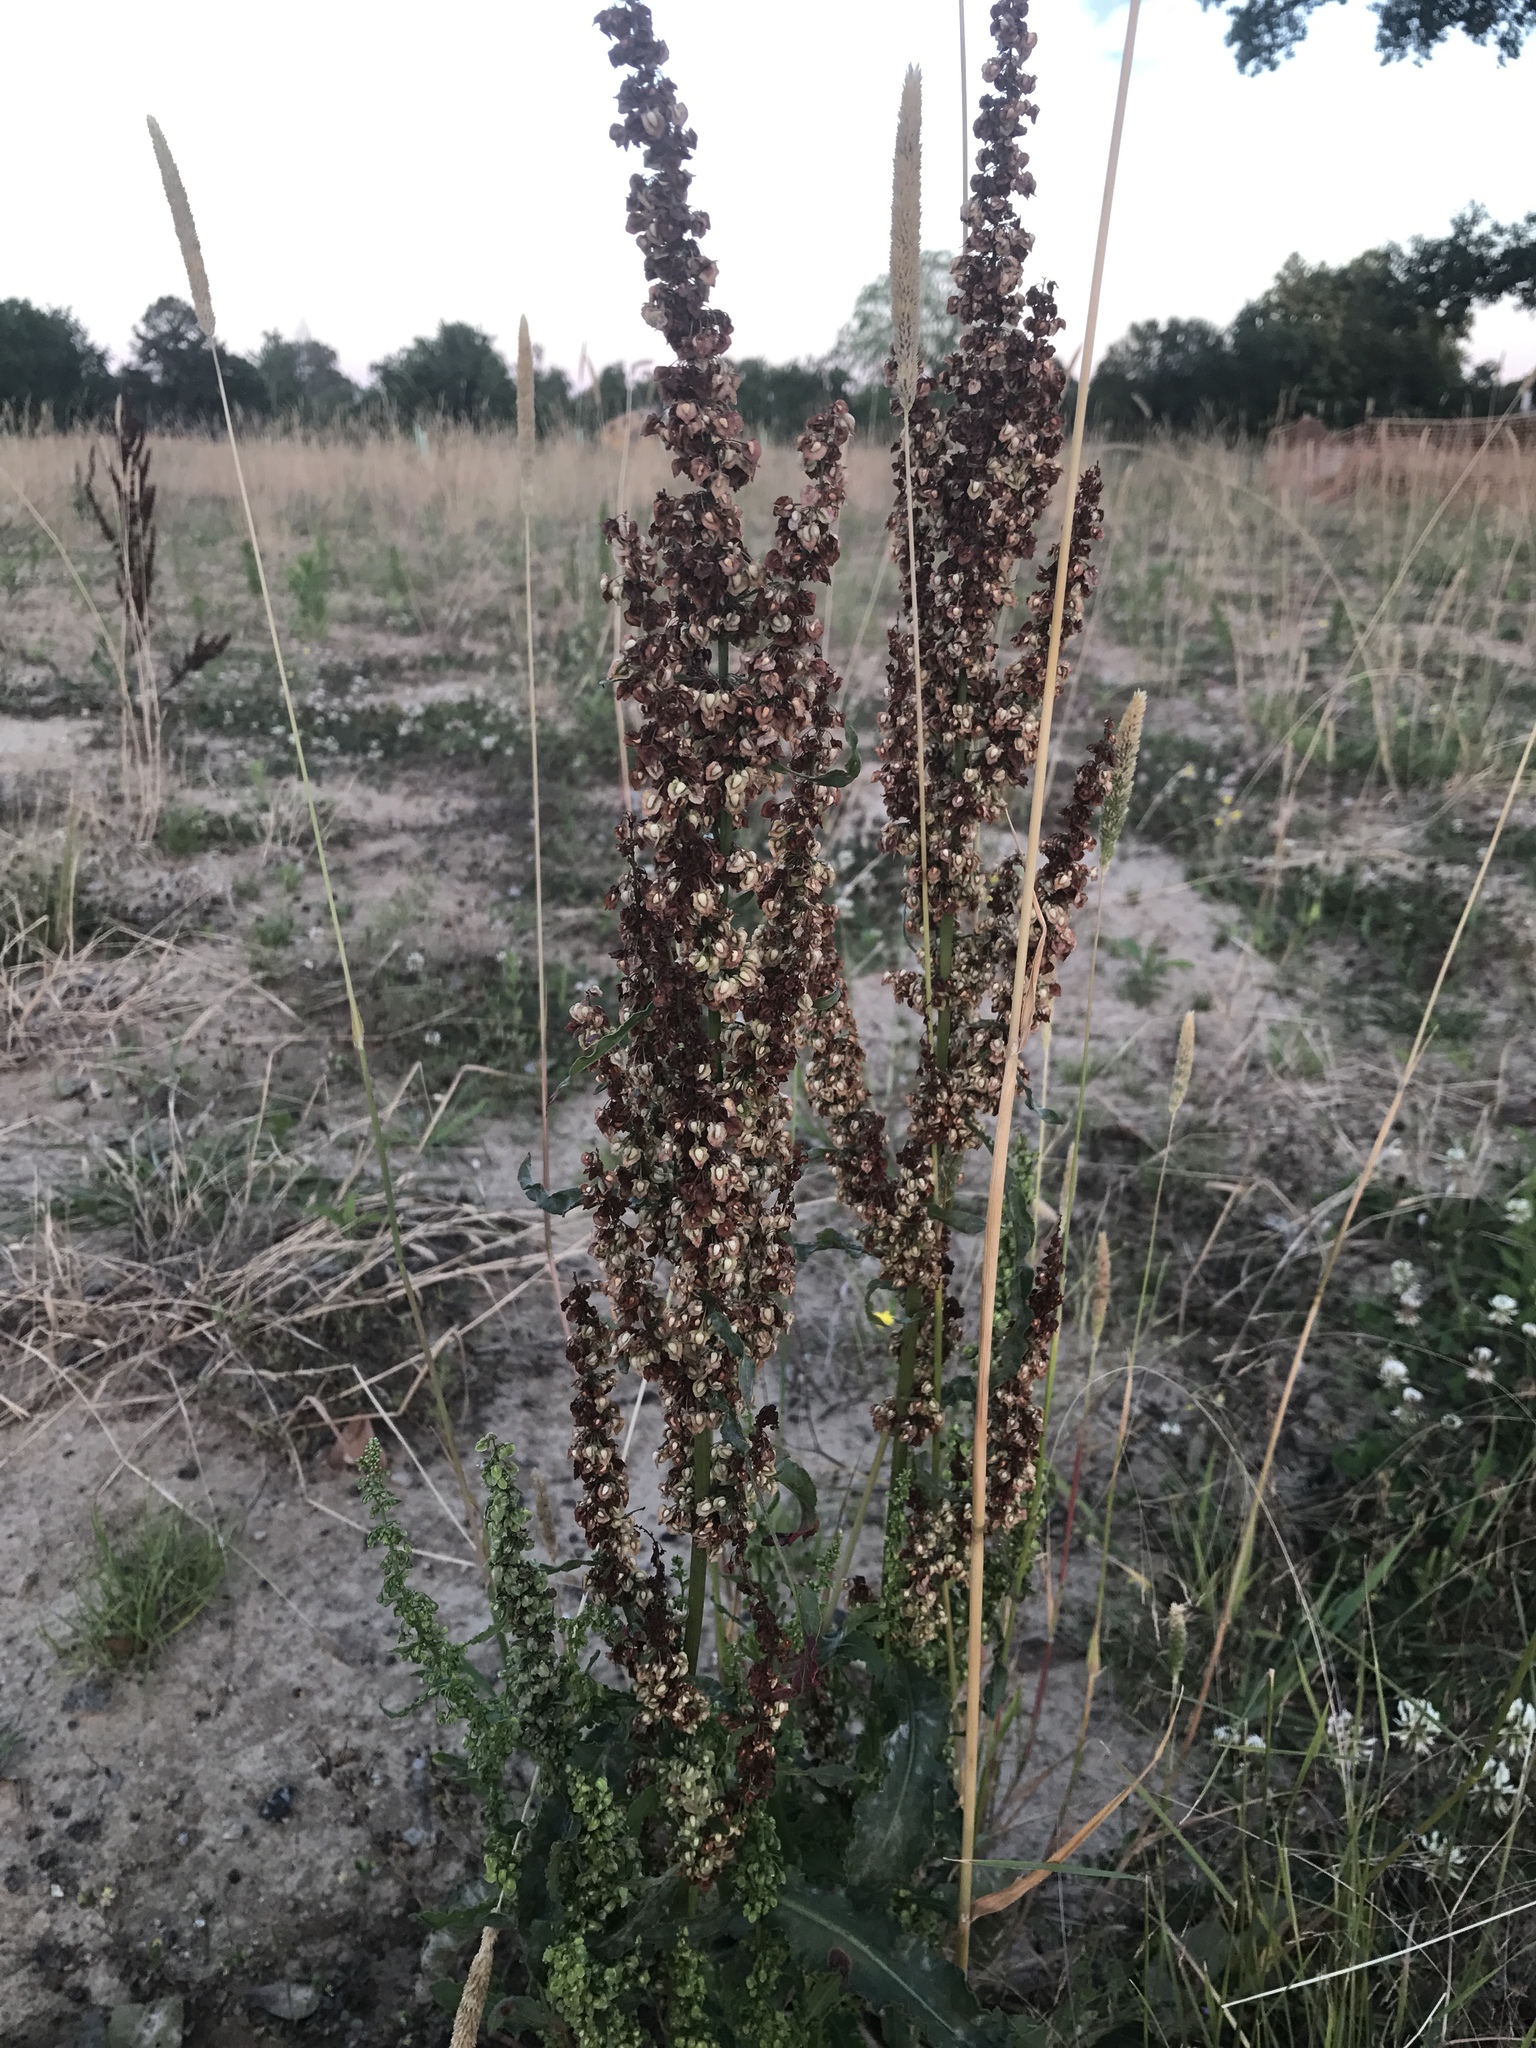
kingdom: Plantae
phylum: Tracheophyta
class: Magnoliopsida
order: Caryophyllales
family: Polygonaceae
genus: Rumex
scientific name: Rumex crispus
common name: Curled dock
